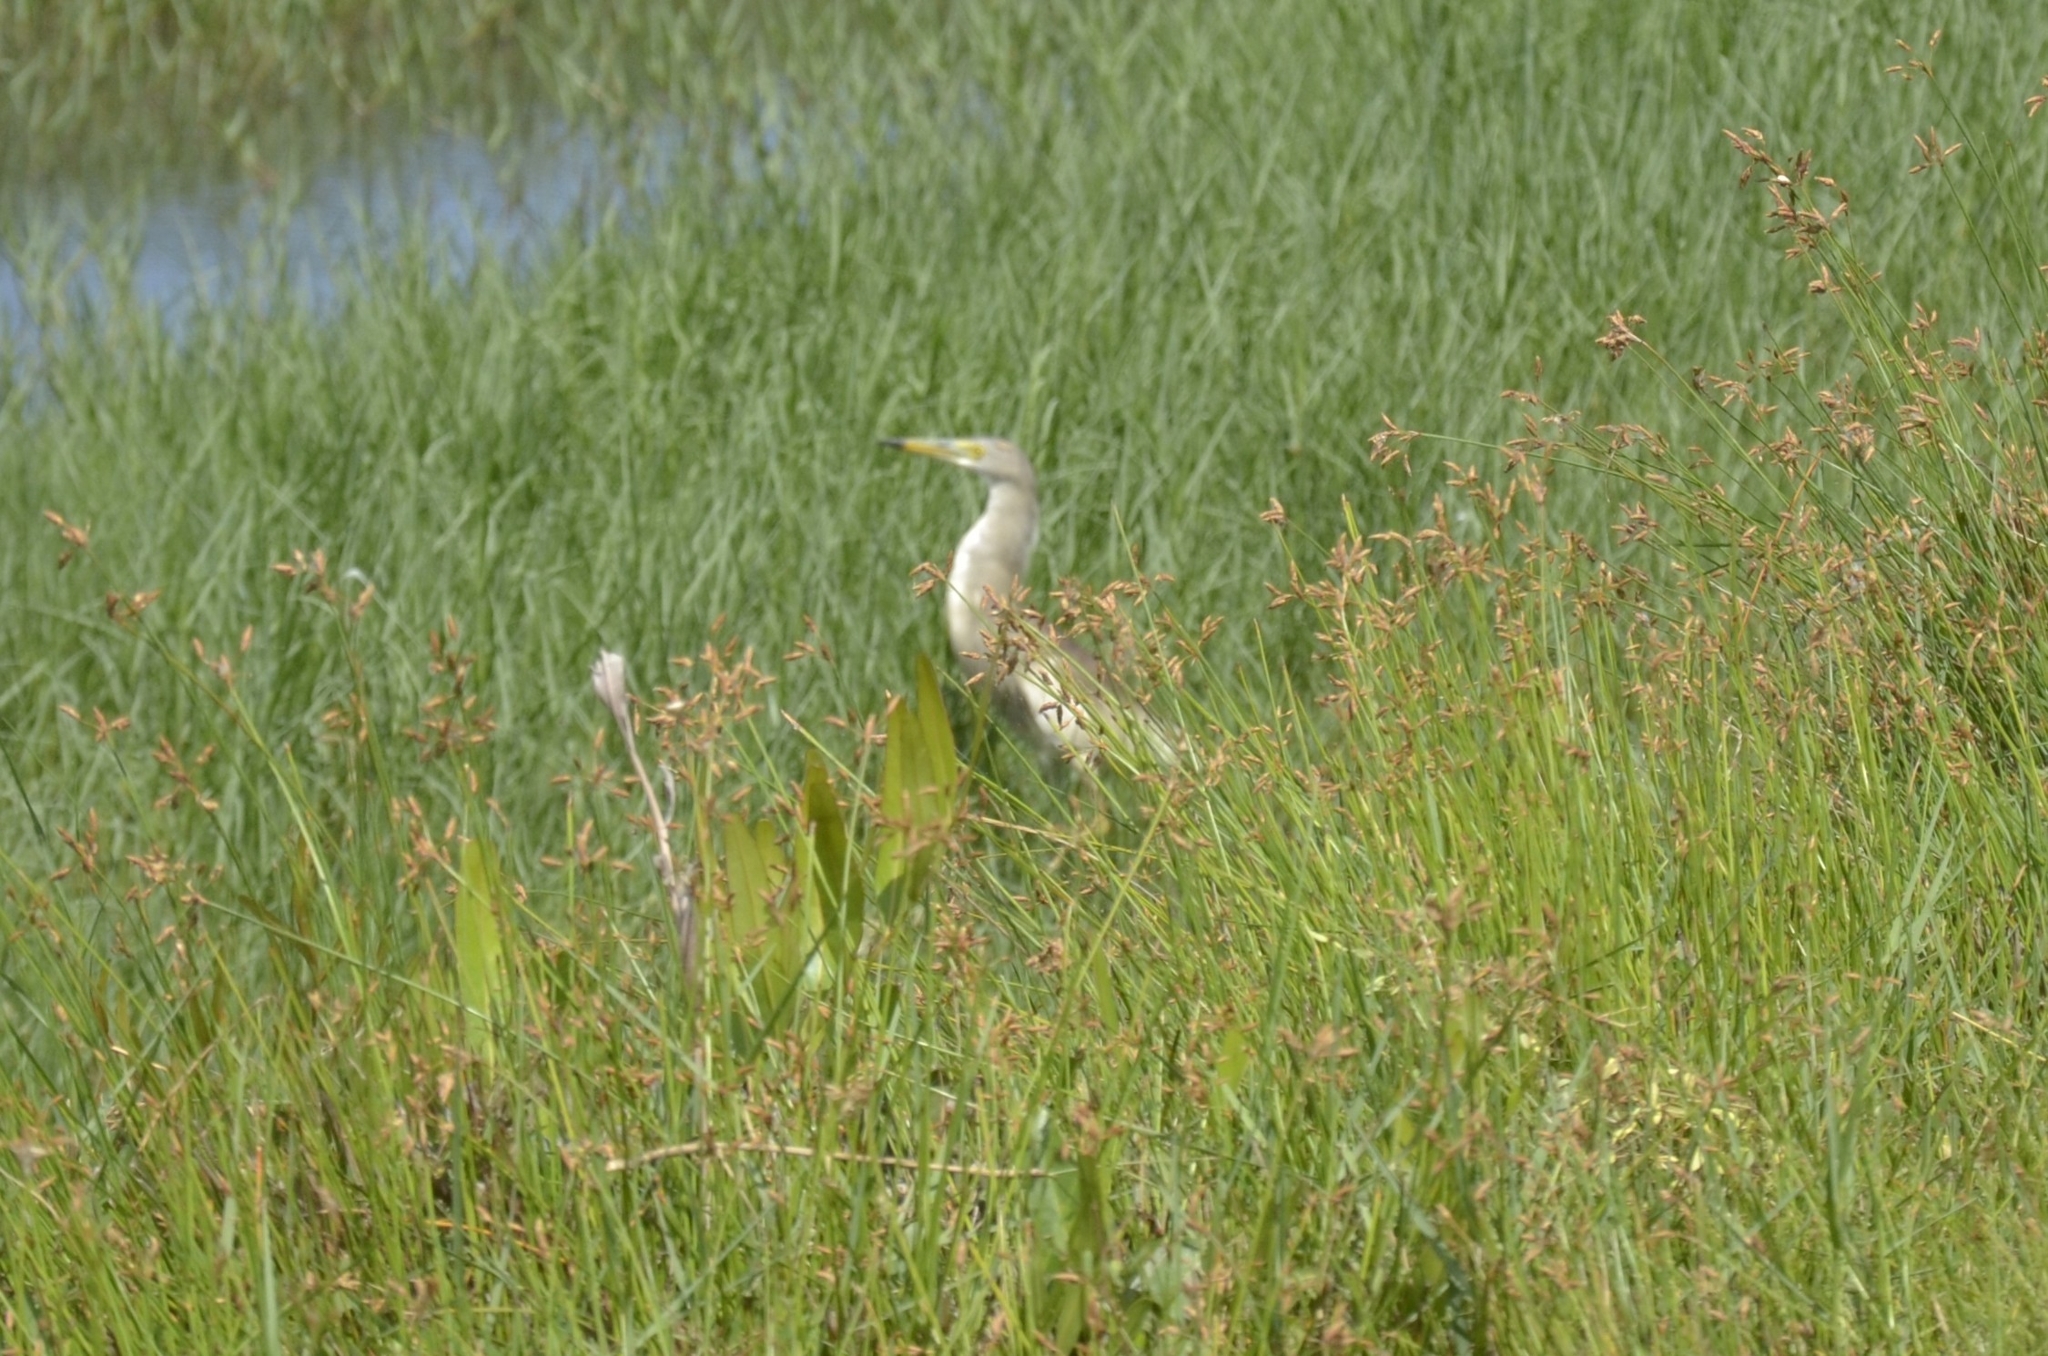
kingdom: Animalia
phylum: Chordata
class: Aves
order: Pelecaniformes
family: Ardeidae
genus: Ardeola
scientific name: Ardeola grayii
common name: Indian pond heron
